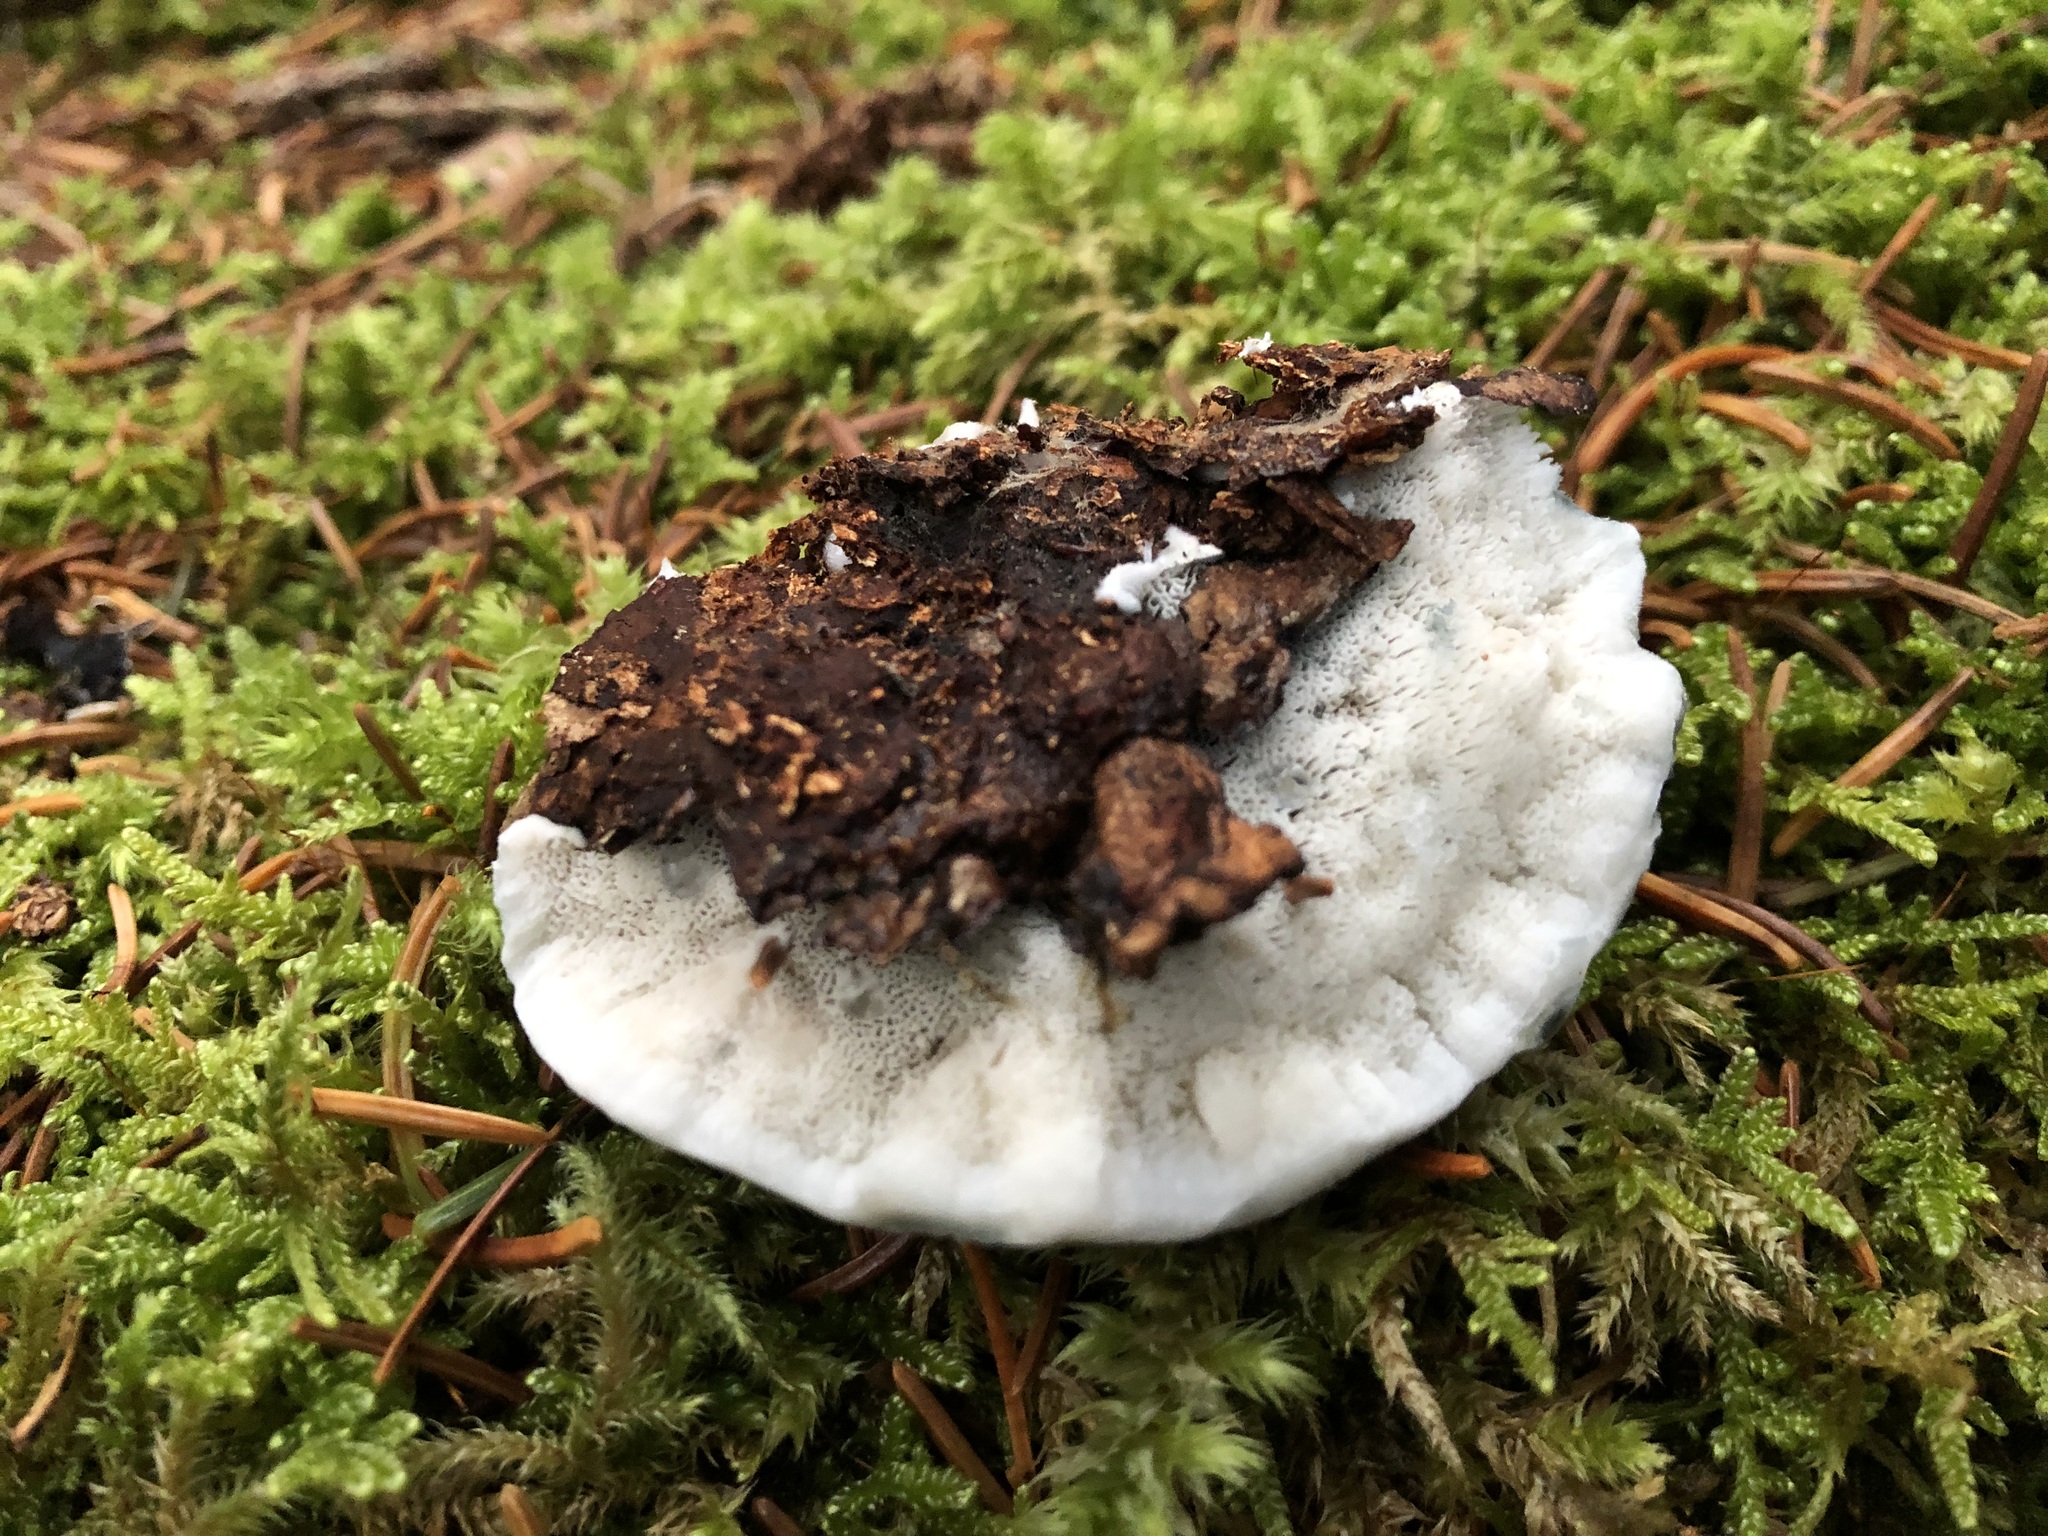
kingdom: Fungi
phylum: Basidiomycota
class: Agaricomycetes
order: Polyporales
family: Polyporaceae
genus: Cyanosporus
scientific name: Cyanosporus caesius
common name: Blue cheese polypore
